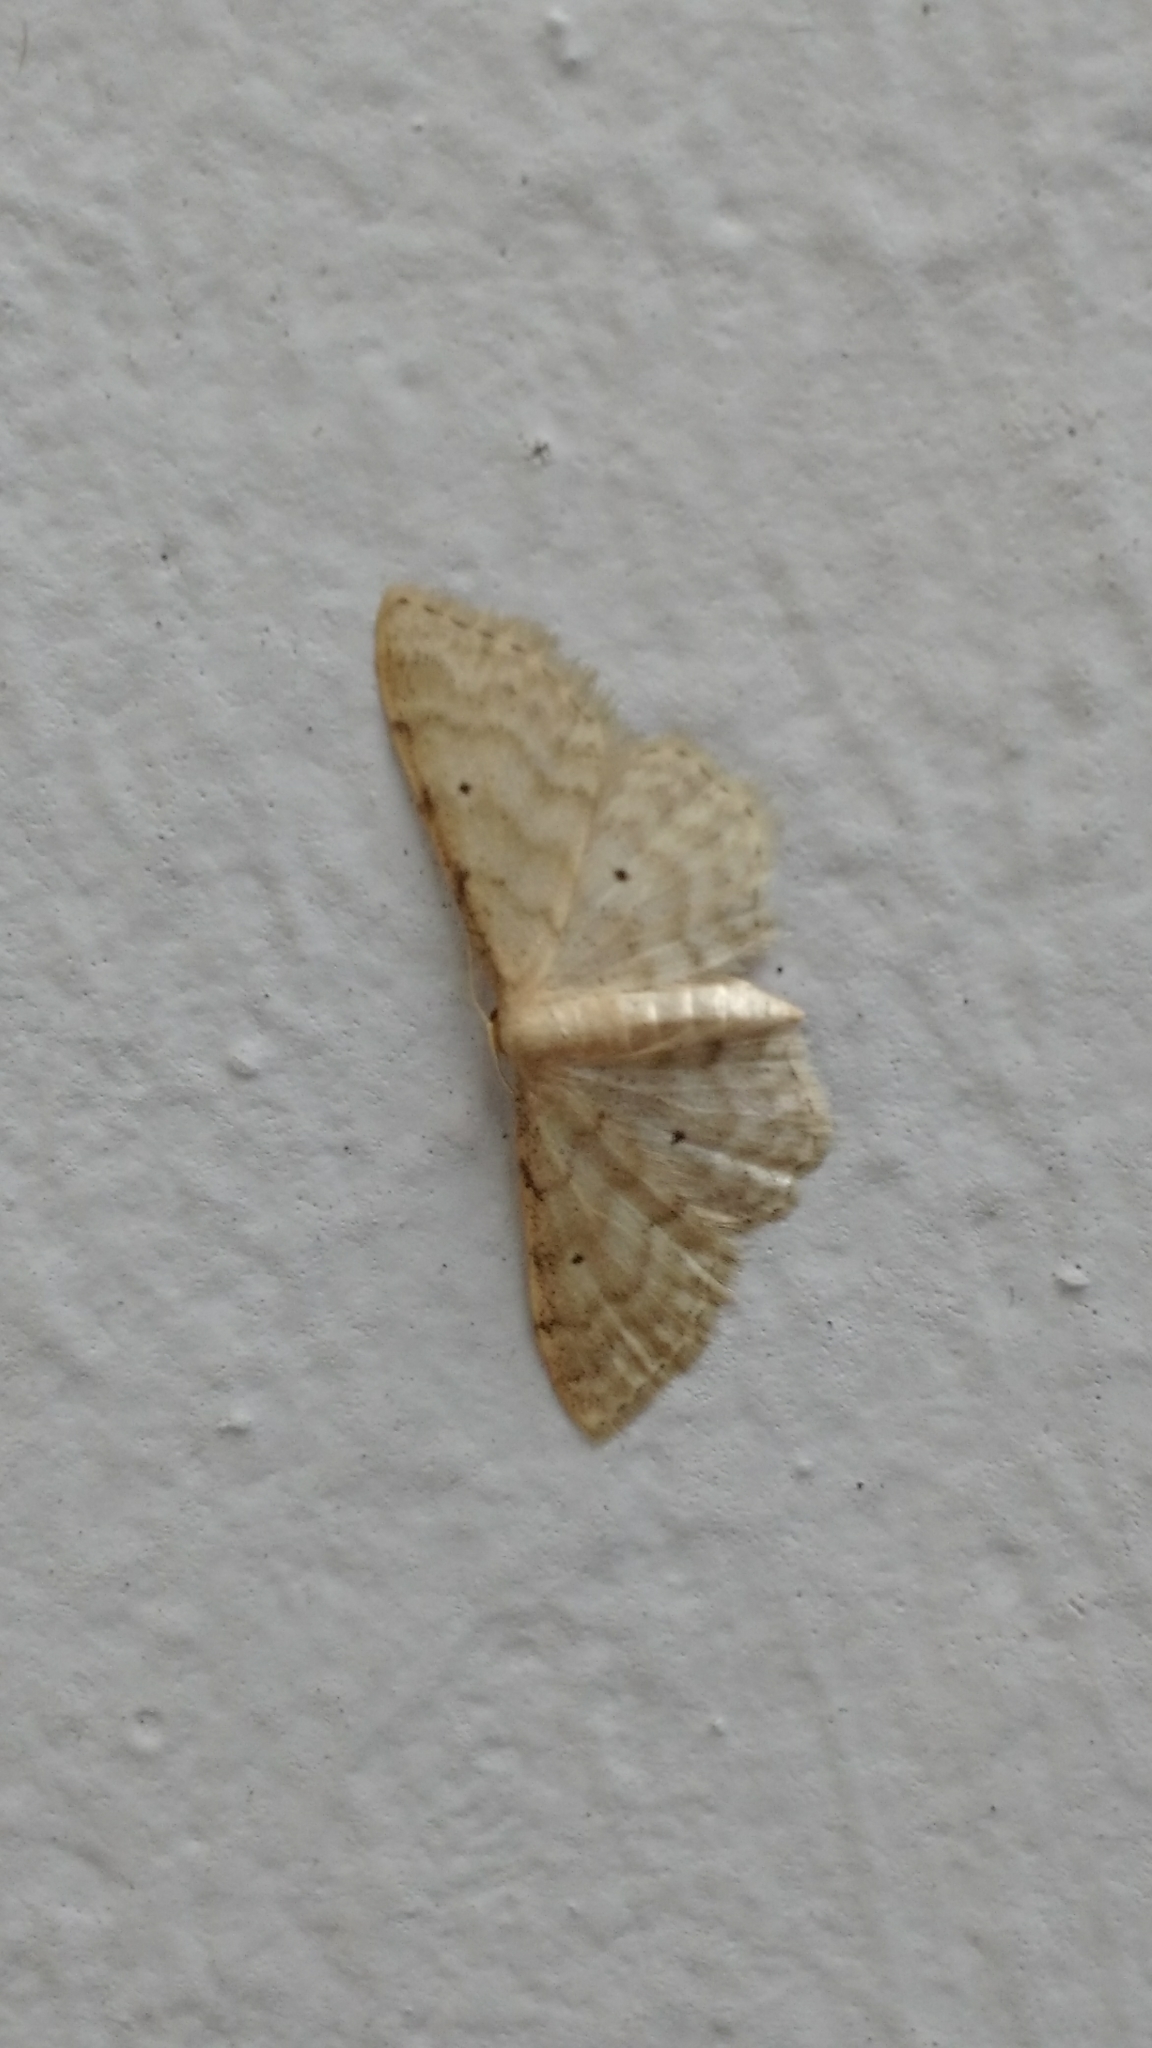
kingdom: Animalia
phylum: Arthropoda
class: Insecta
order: Lepidoptera
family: Geometridae
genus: Idaea
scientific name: Idaea fuscovenosa
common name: Dwarf cream wave
